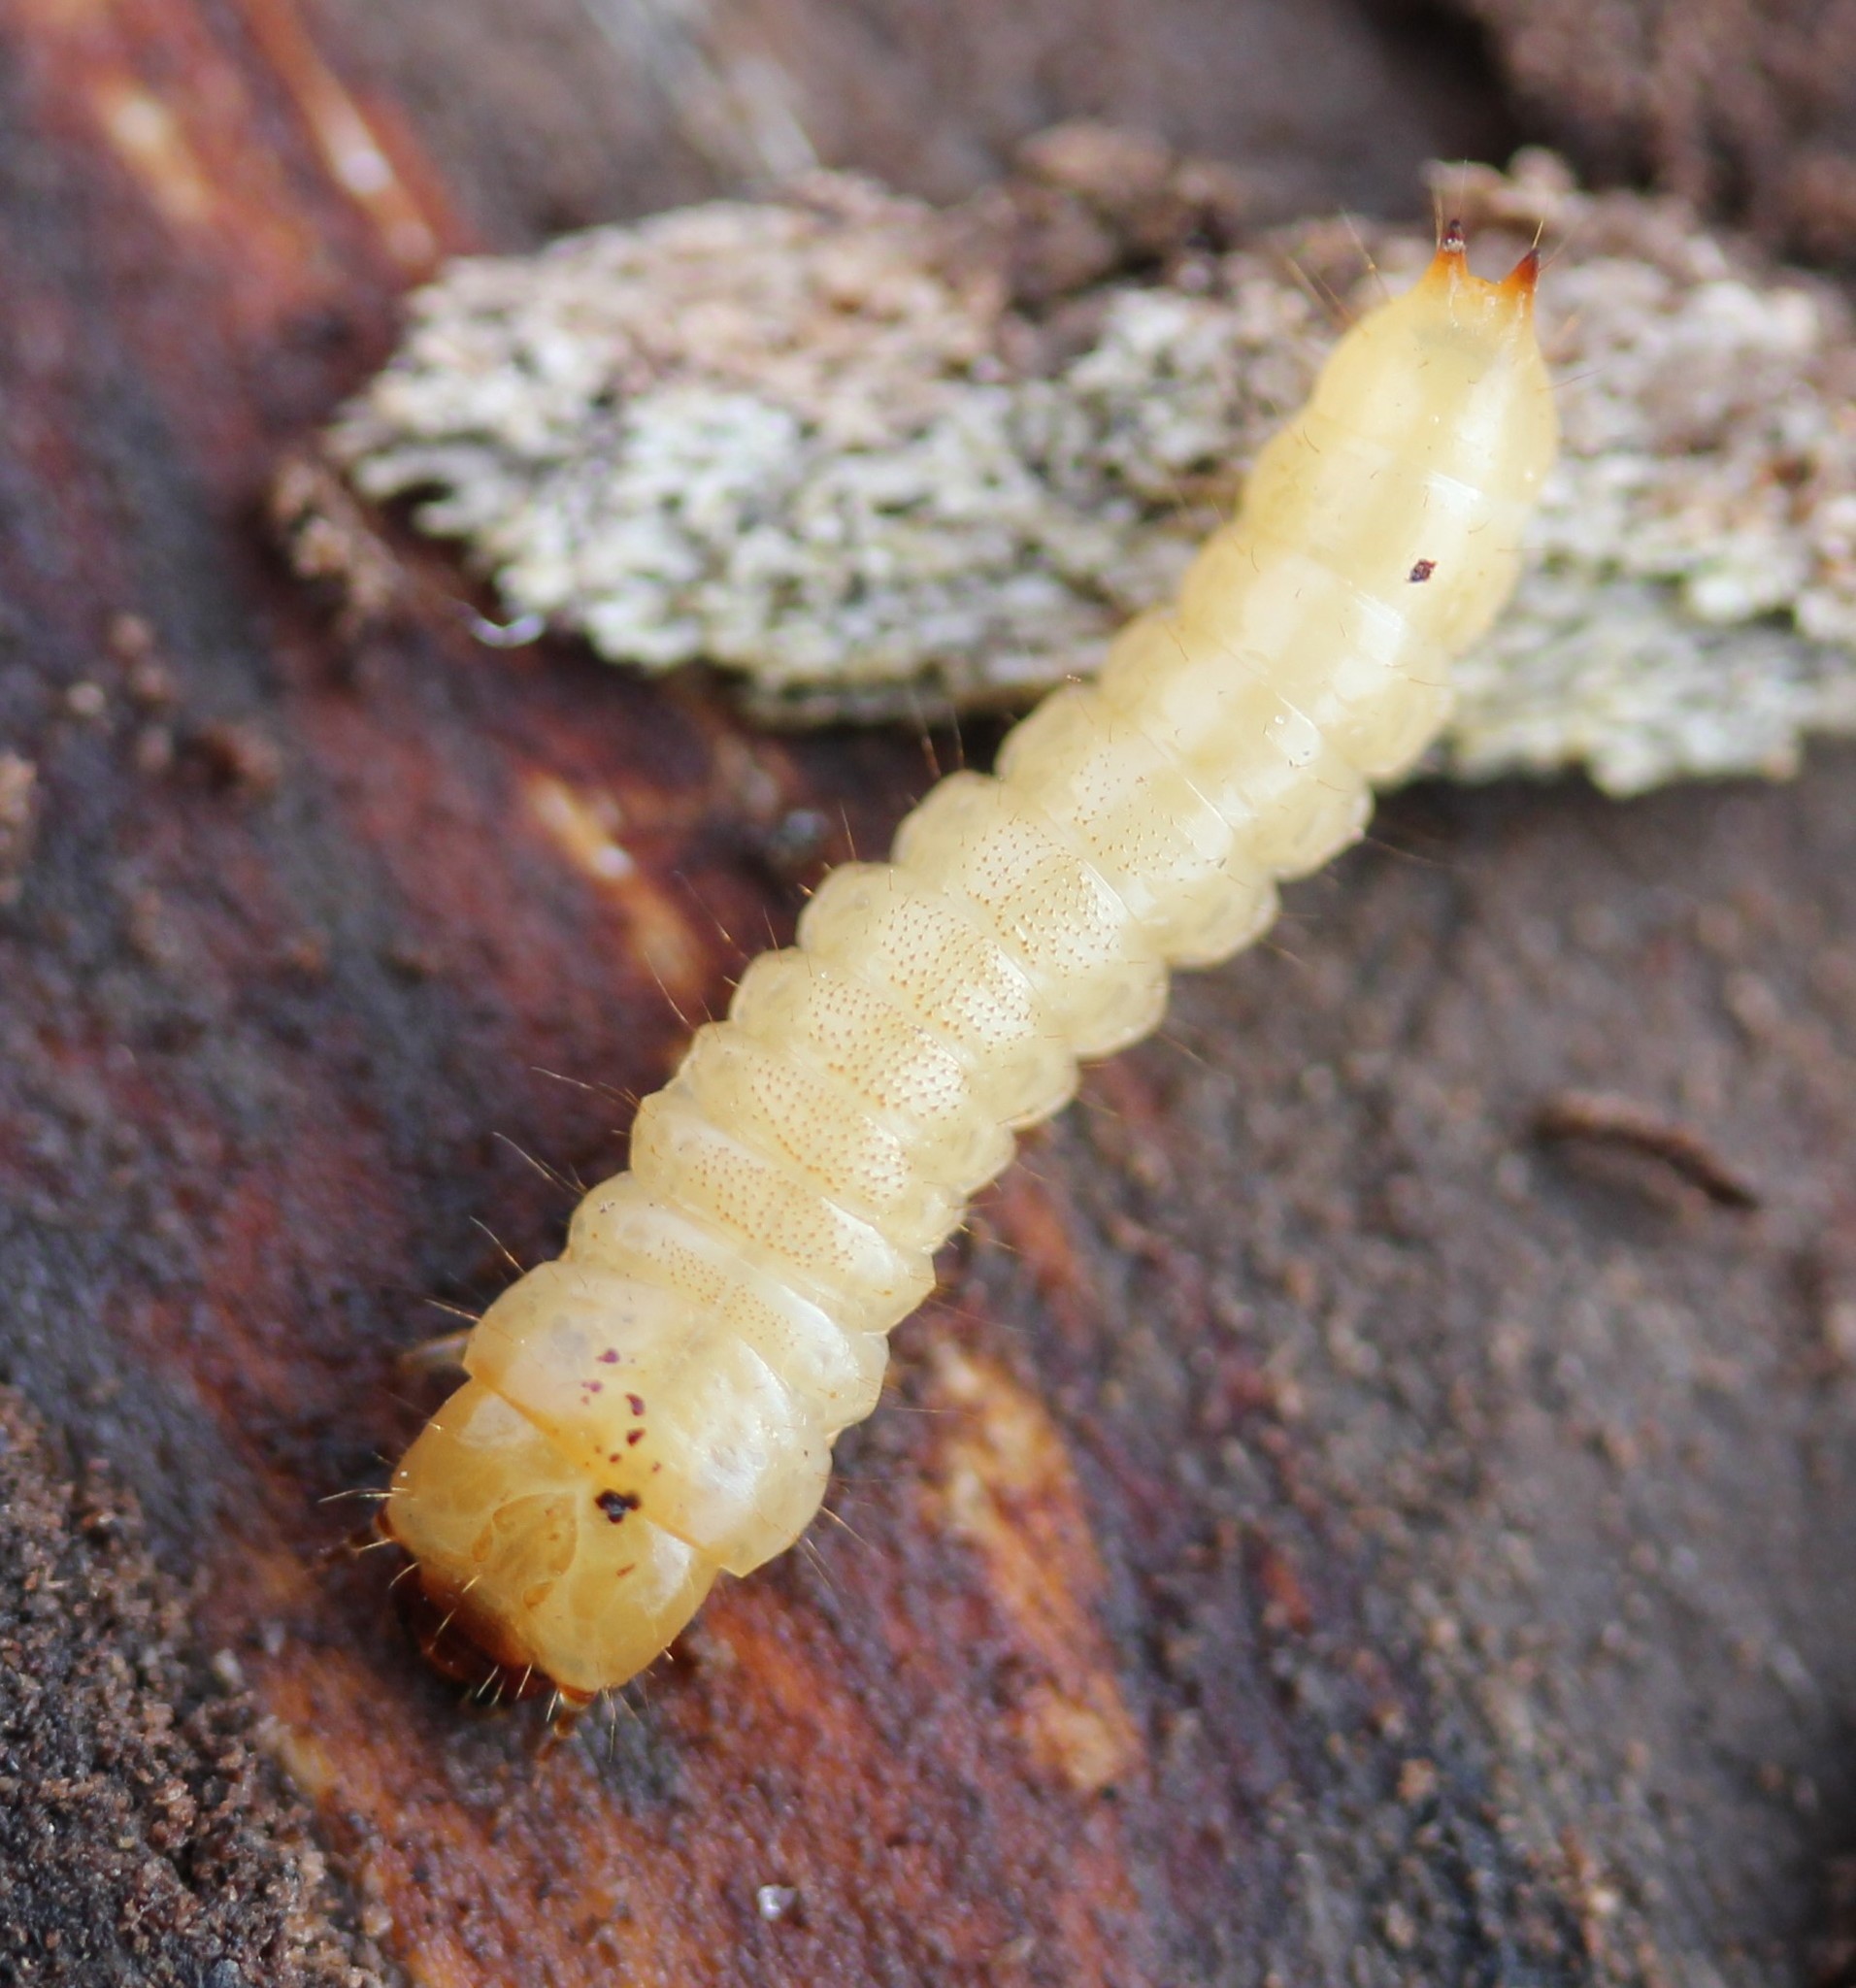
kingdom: Animalia
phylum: Arthropoda
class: Insecta
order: Coleoptera
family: Synchroidae
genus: Synchroa
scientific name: Synchroa punctata
